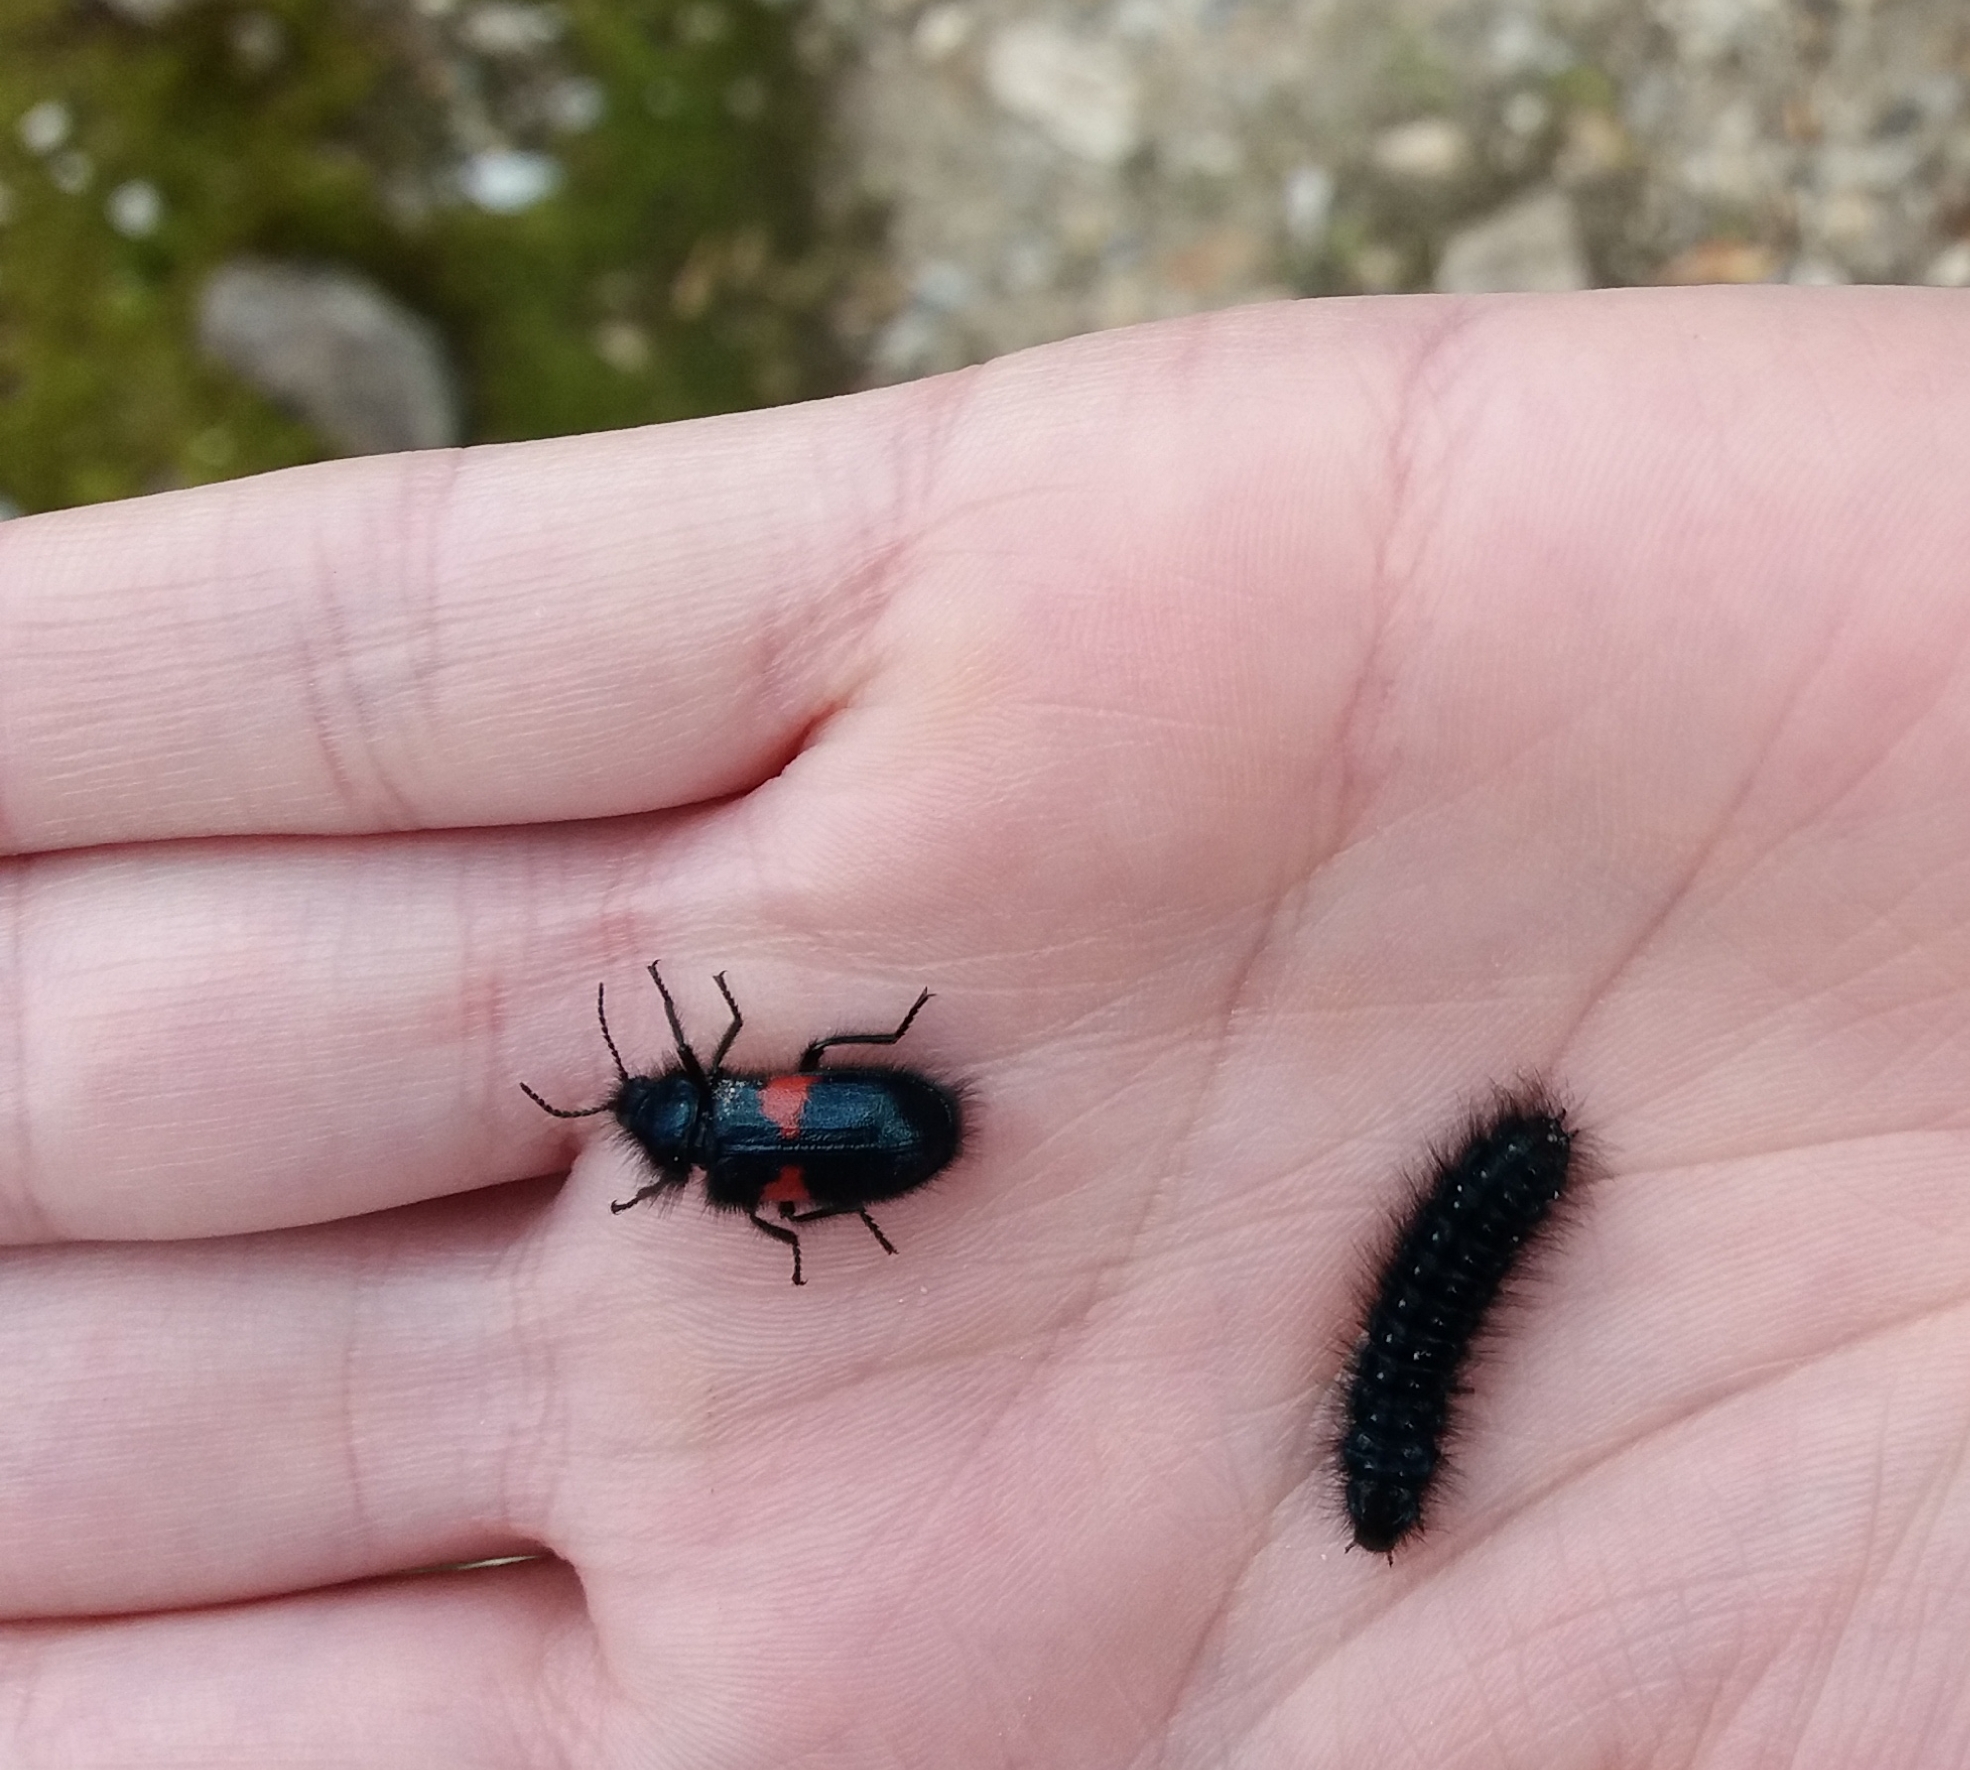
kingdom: Animalia
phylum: Arthropoda
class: Insecta
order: Coleoptera
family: Melyridae
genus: Astylus
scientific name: Astylus
